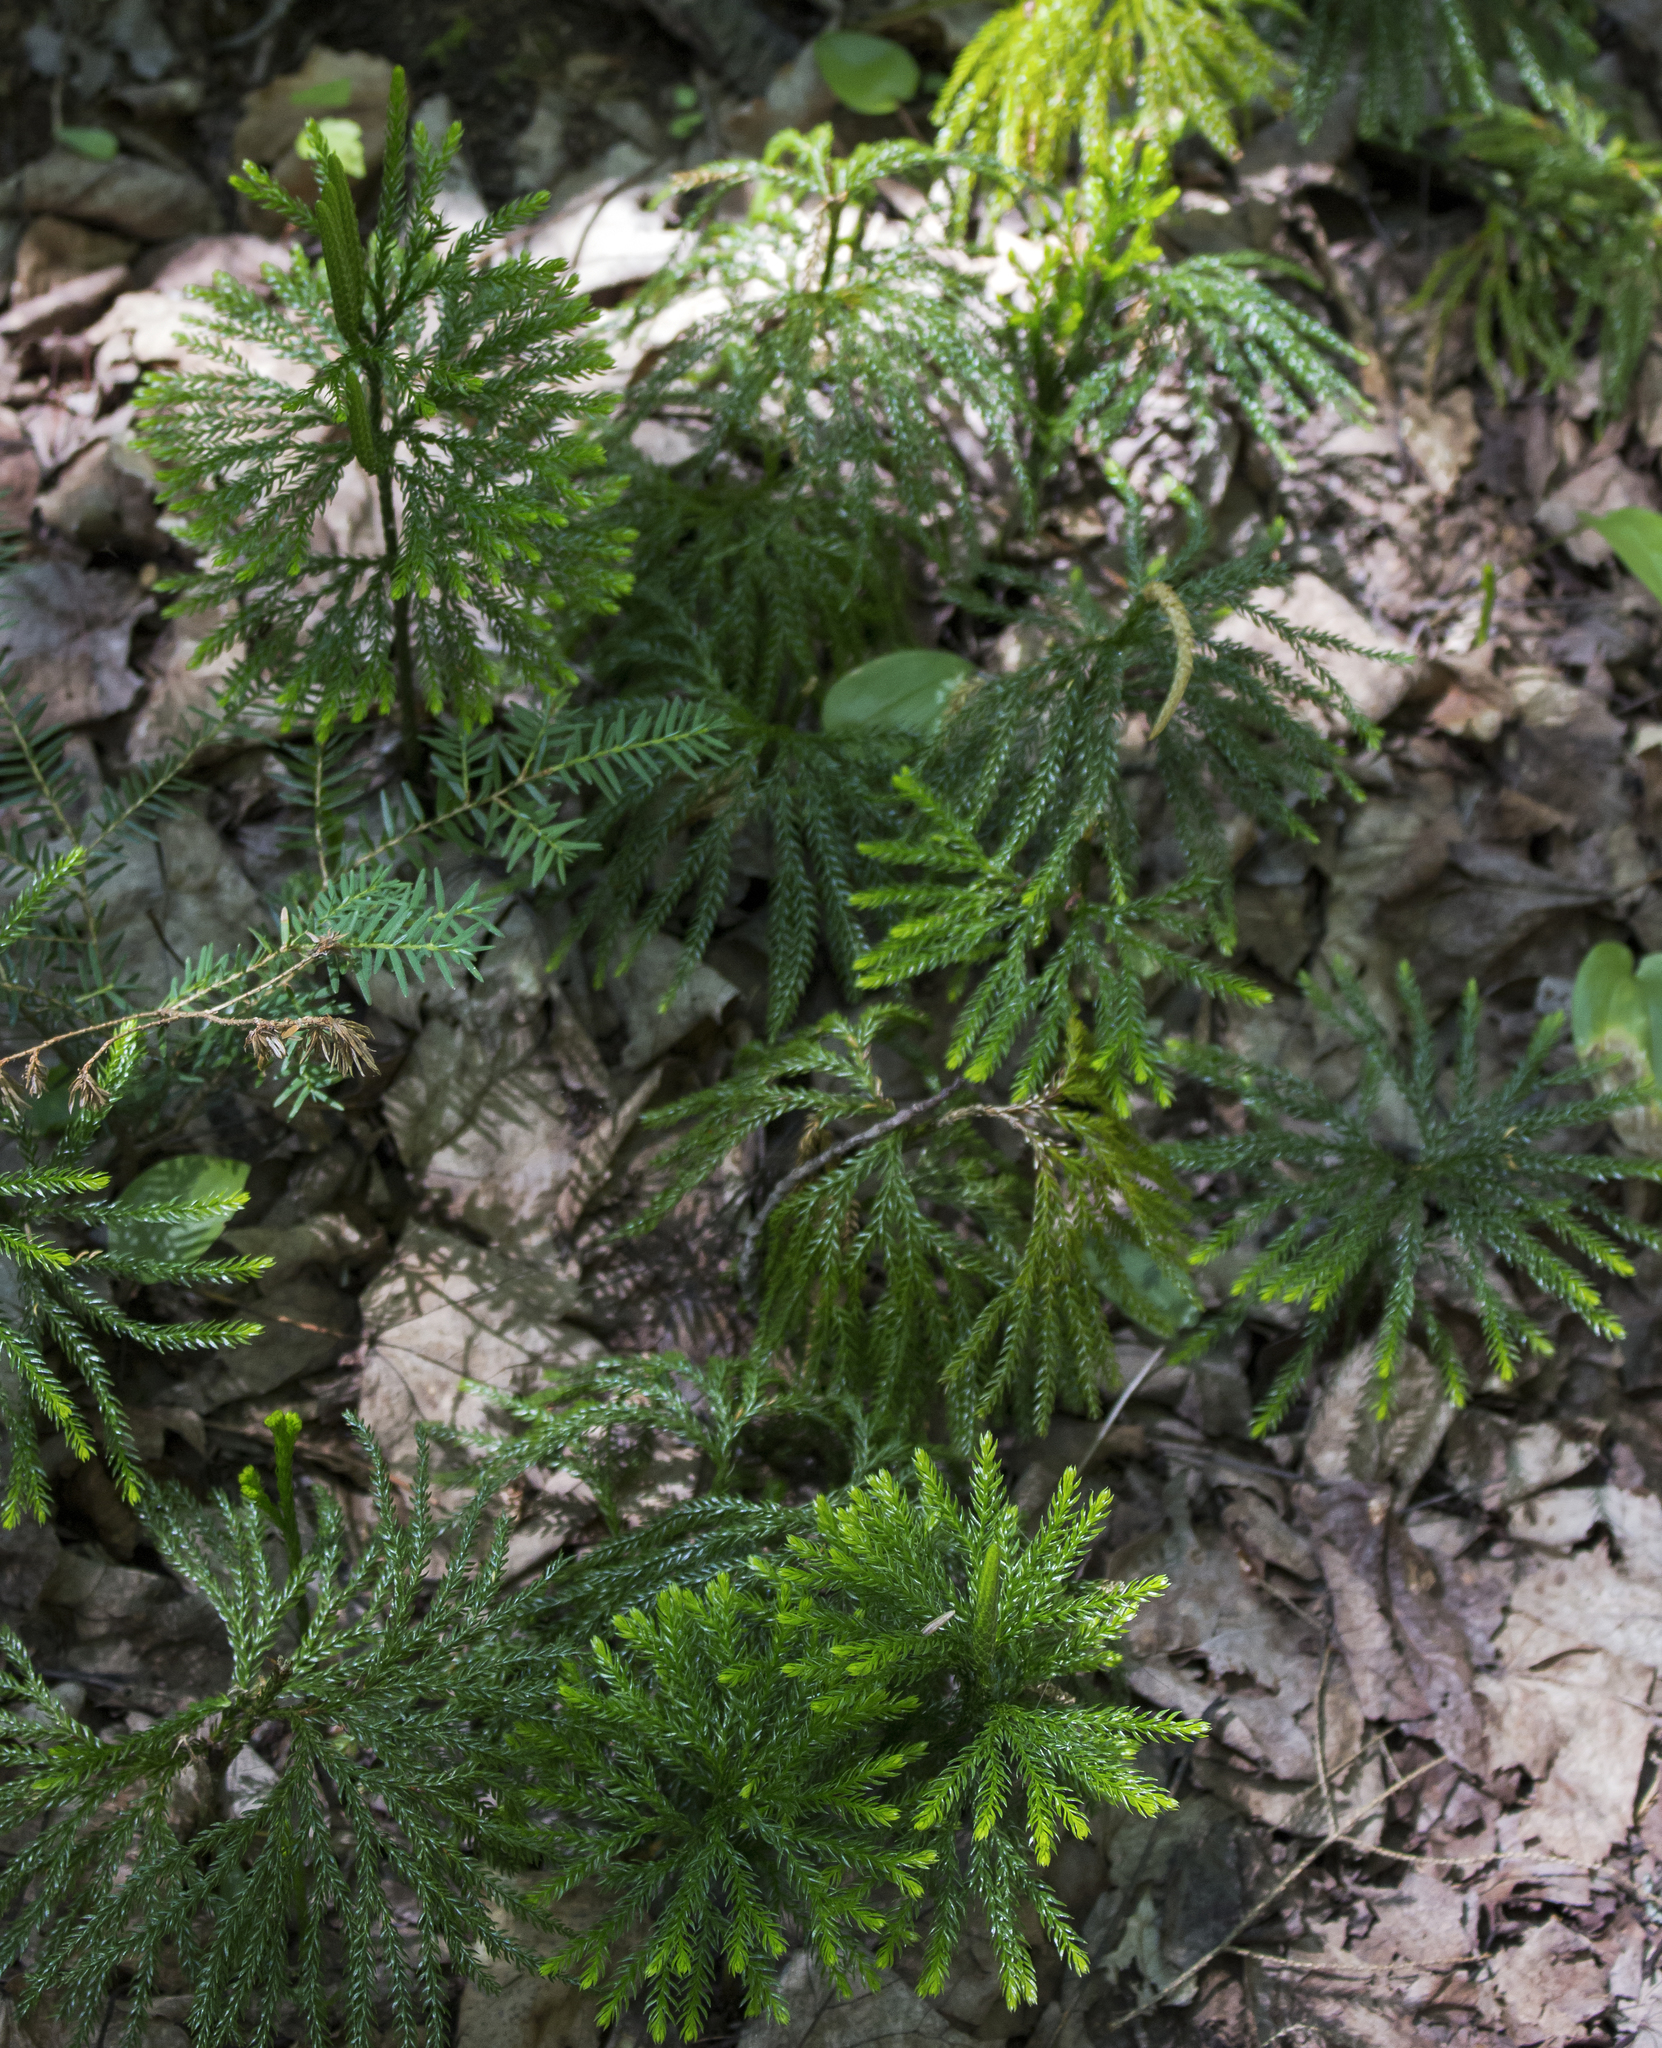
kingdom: Plantae
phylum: Tracheophyta
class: Lycopodiopsida
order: Lycopodiales
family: Lycopodiaceae
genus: Dendrolycopodium
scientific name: Dendrolycopodium hickeyi
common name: Hickey's clubmoss
